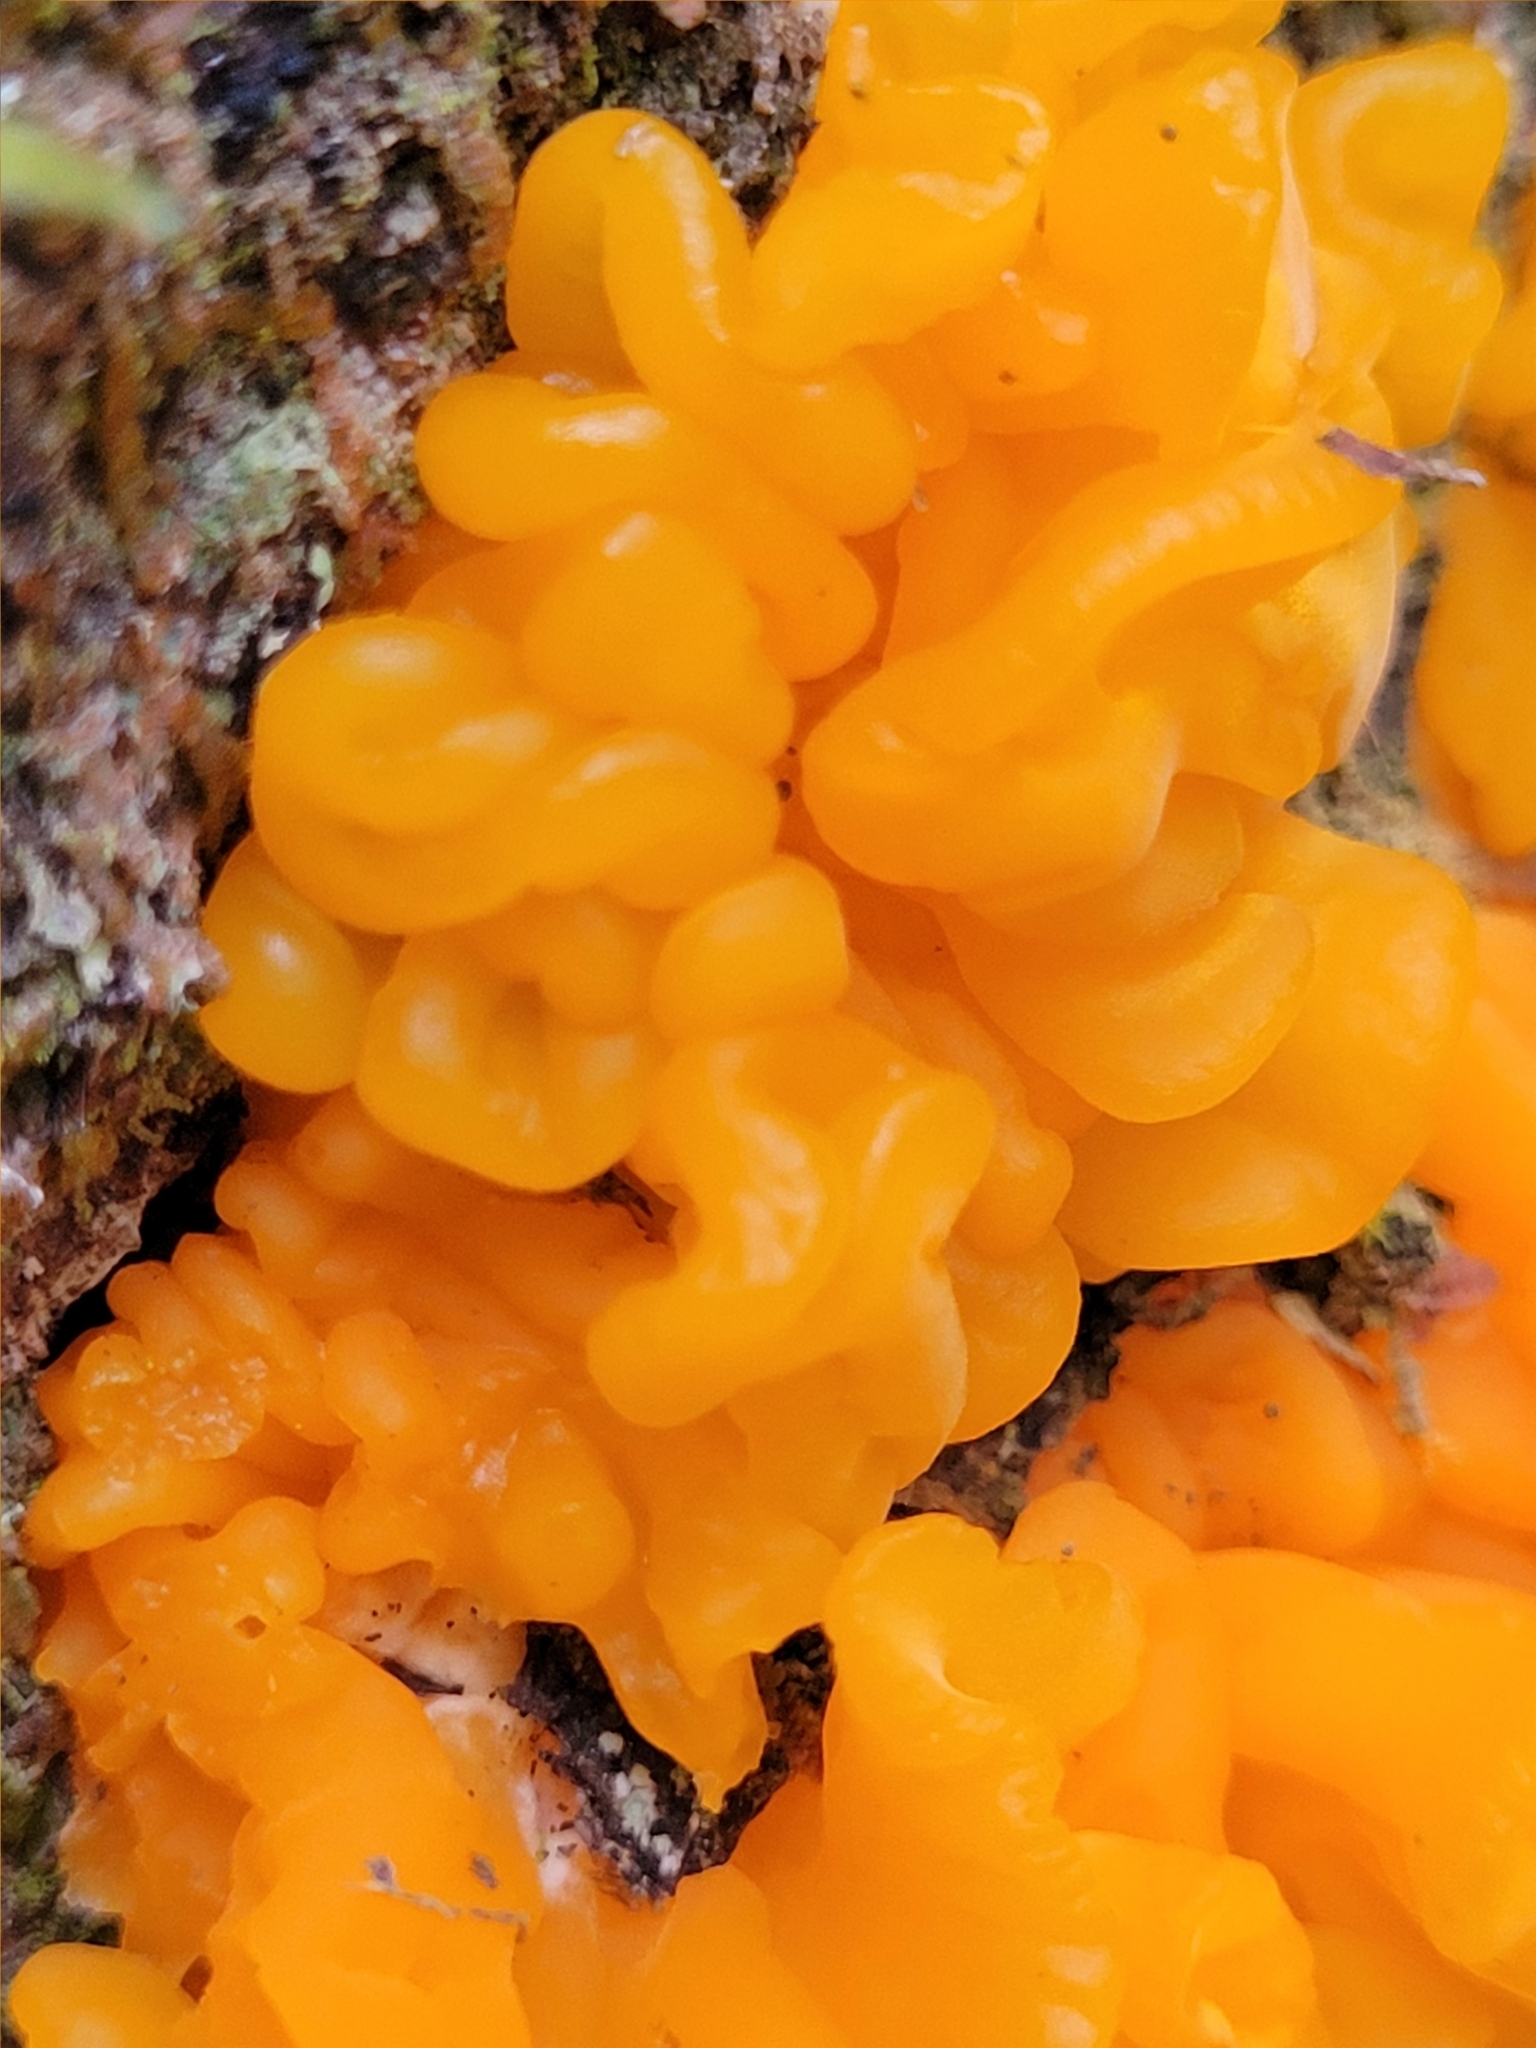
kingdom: Fungi
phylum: Basidiomycota
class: Dacrymycetes
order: Dacrymycetales
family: Dacrymycetaceae
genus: Dacrymyces
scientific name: Dacrymyces chrysospermus
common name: Orange jelly spot
